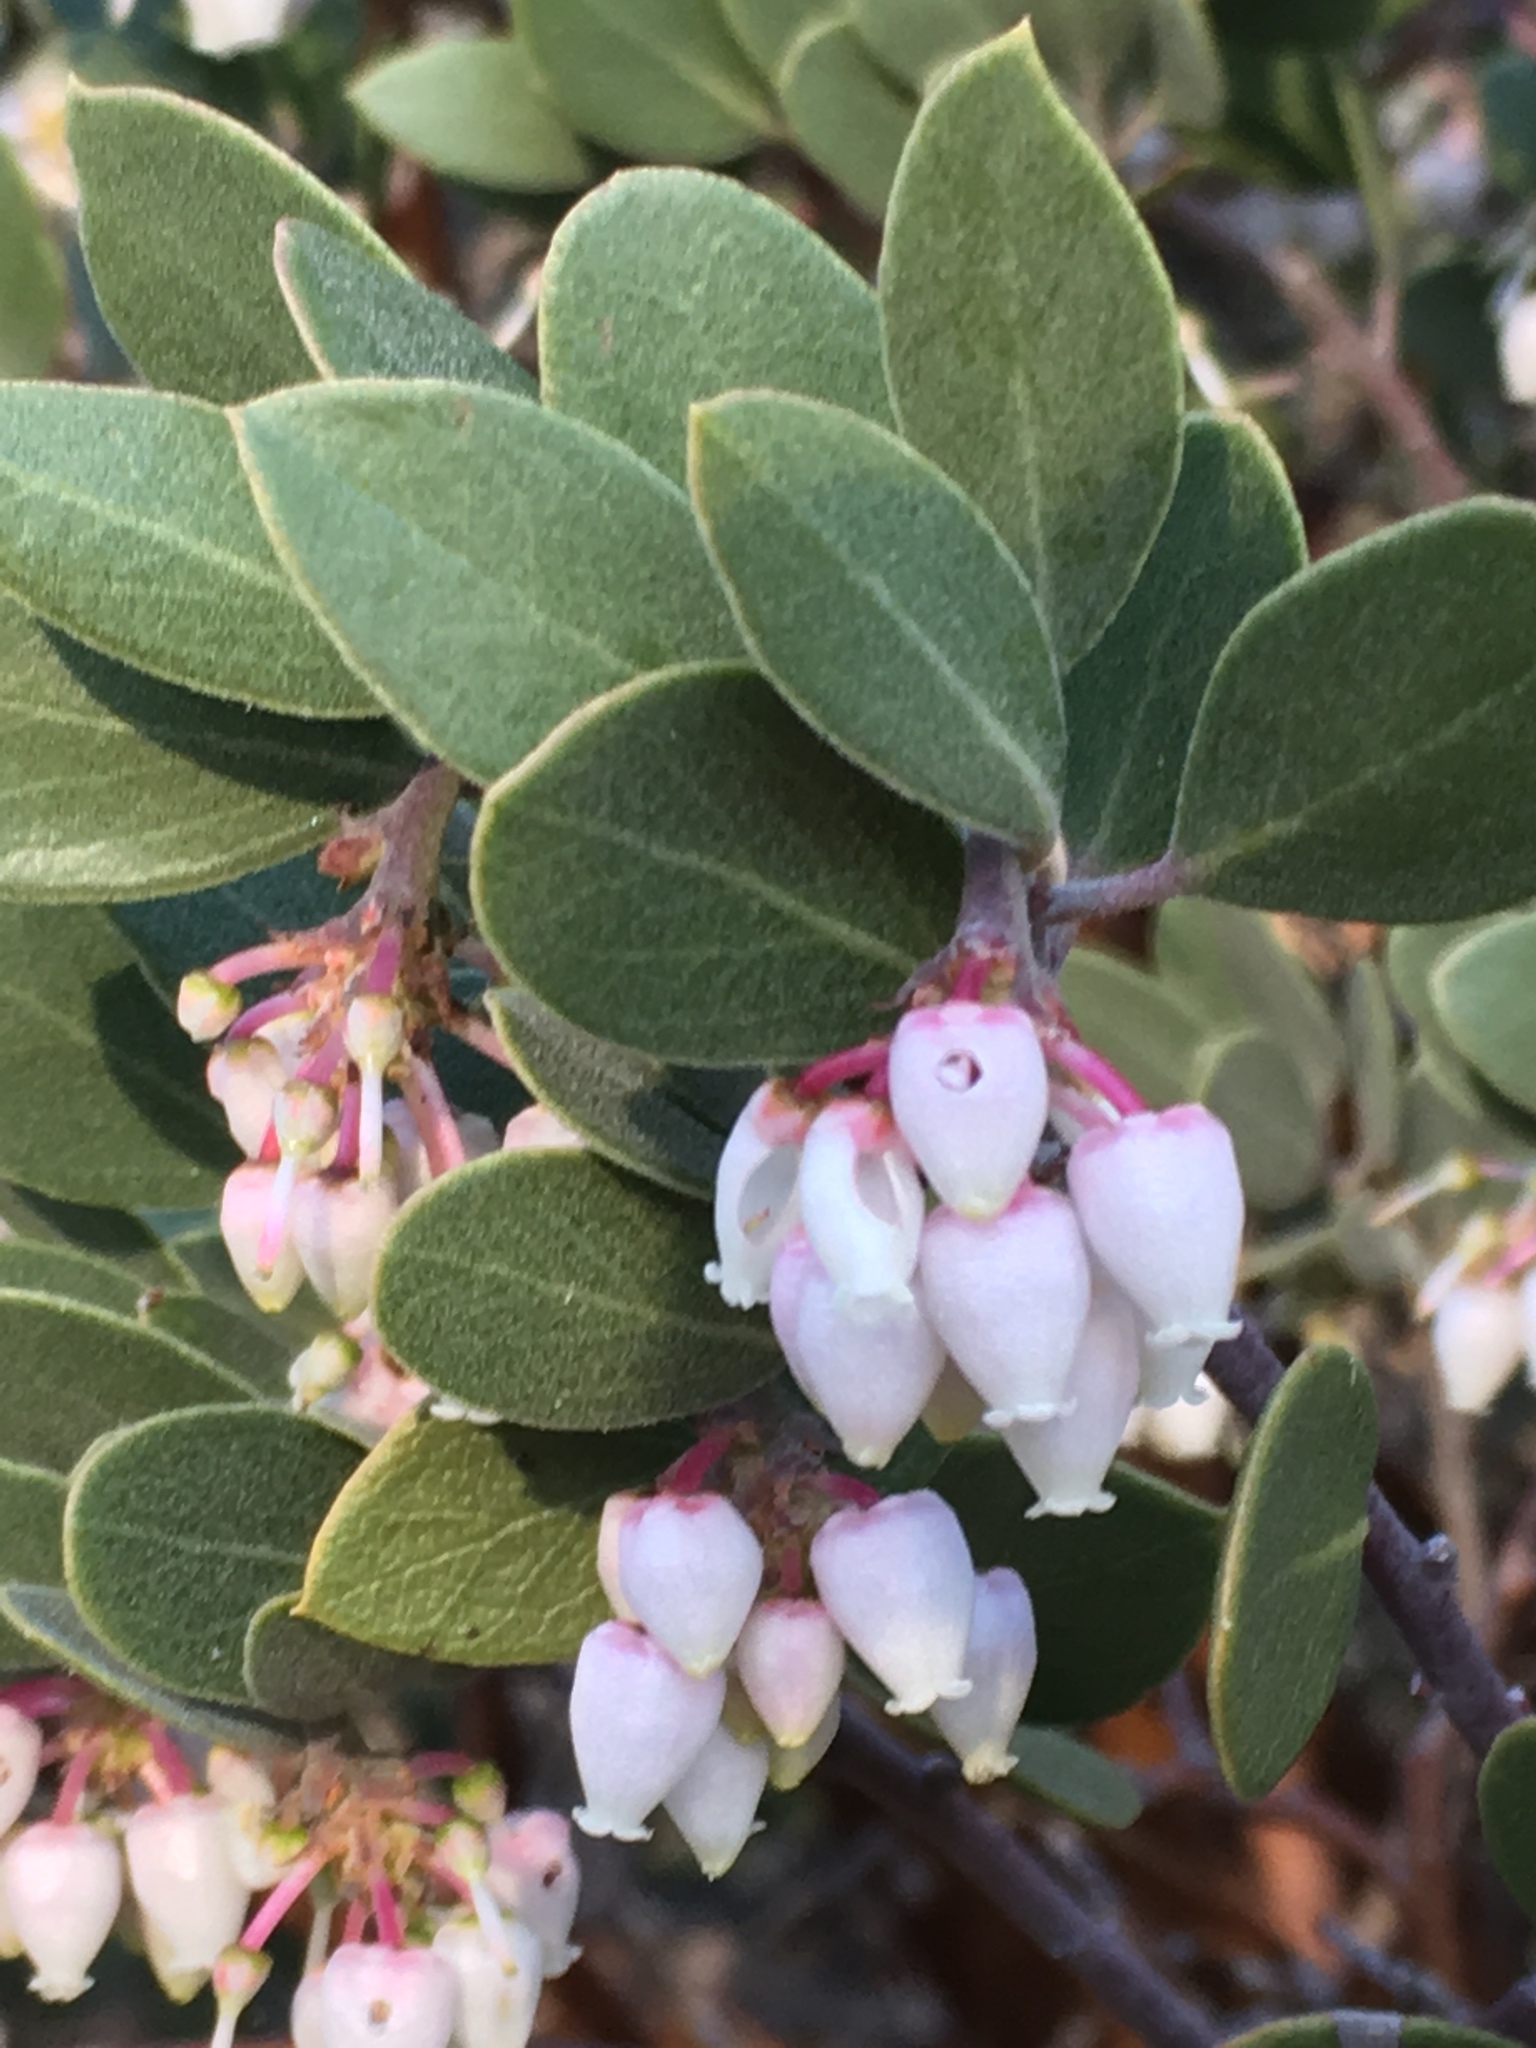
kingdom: Plantae
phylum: Tracheophyta
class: Magnoliopsida
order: Ericales
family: Ericaceae
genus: Arctostaphylos
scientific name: Arctostaphylos pungens
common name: Mexican manzanita
